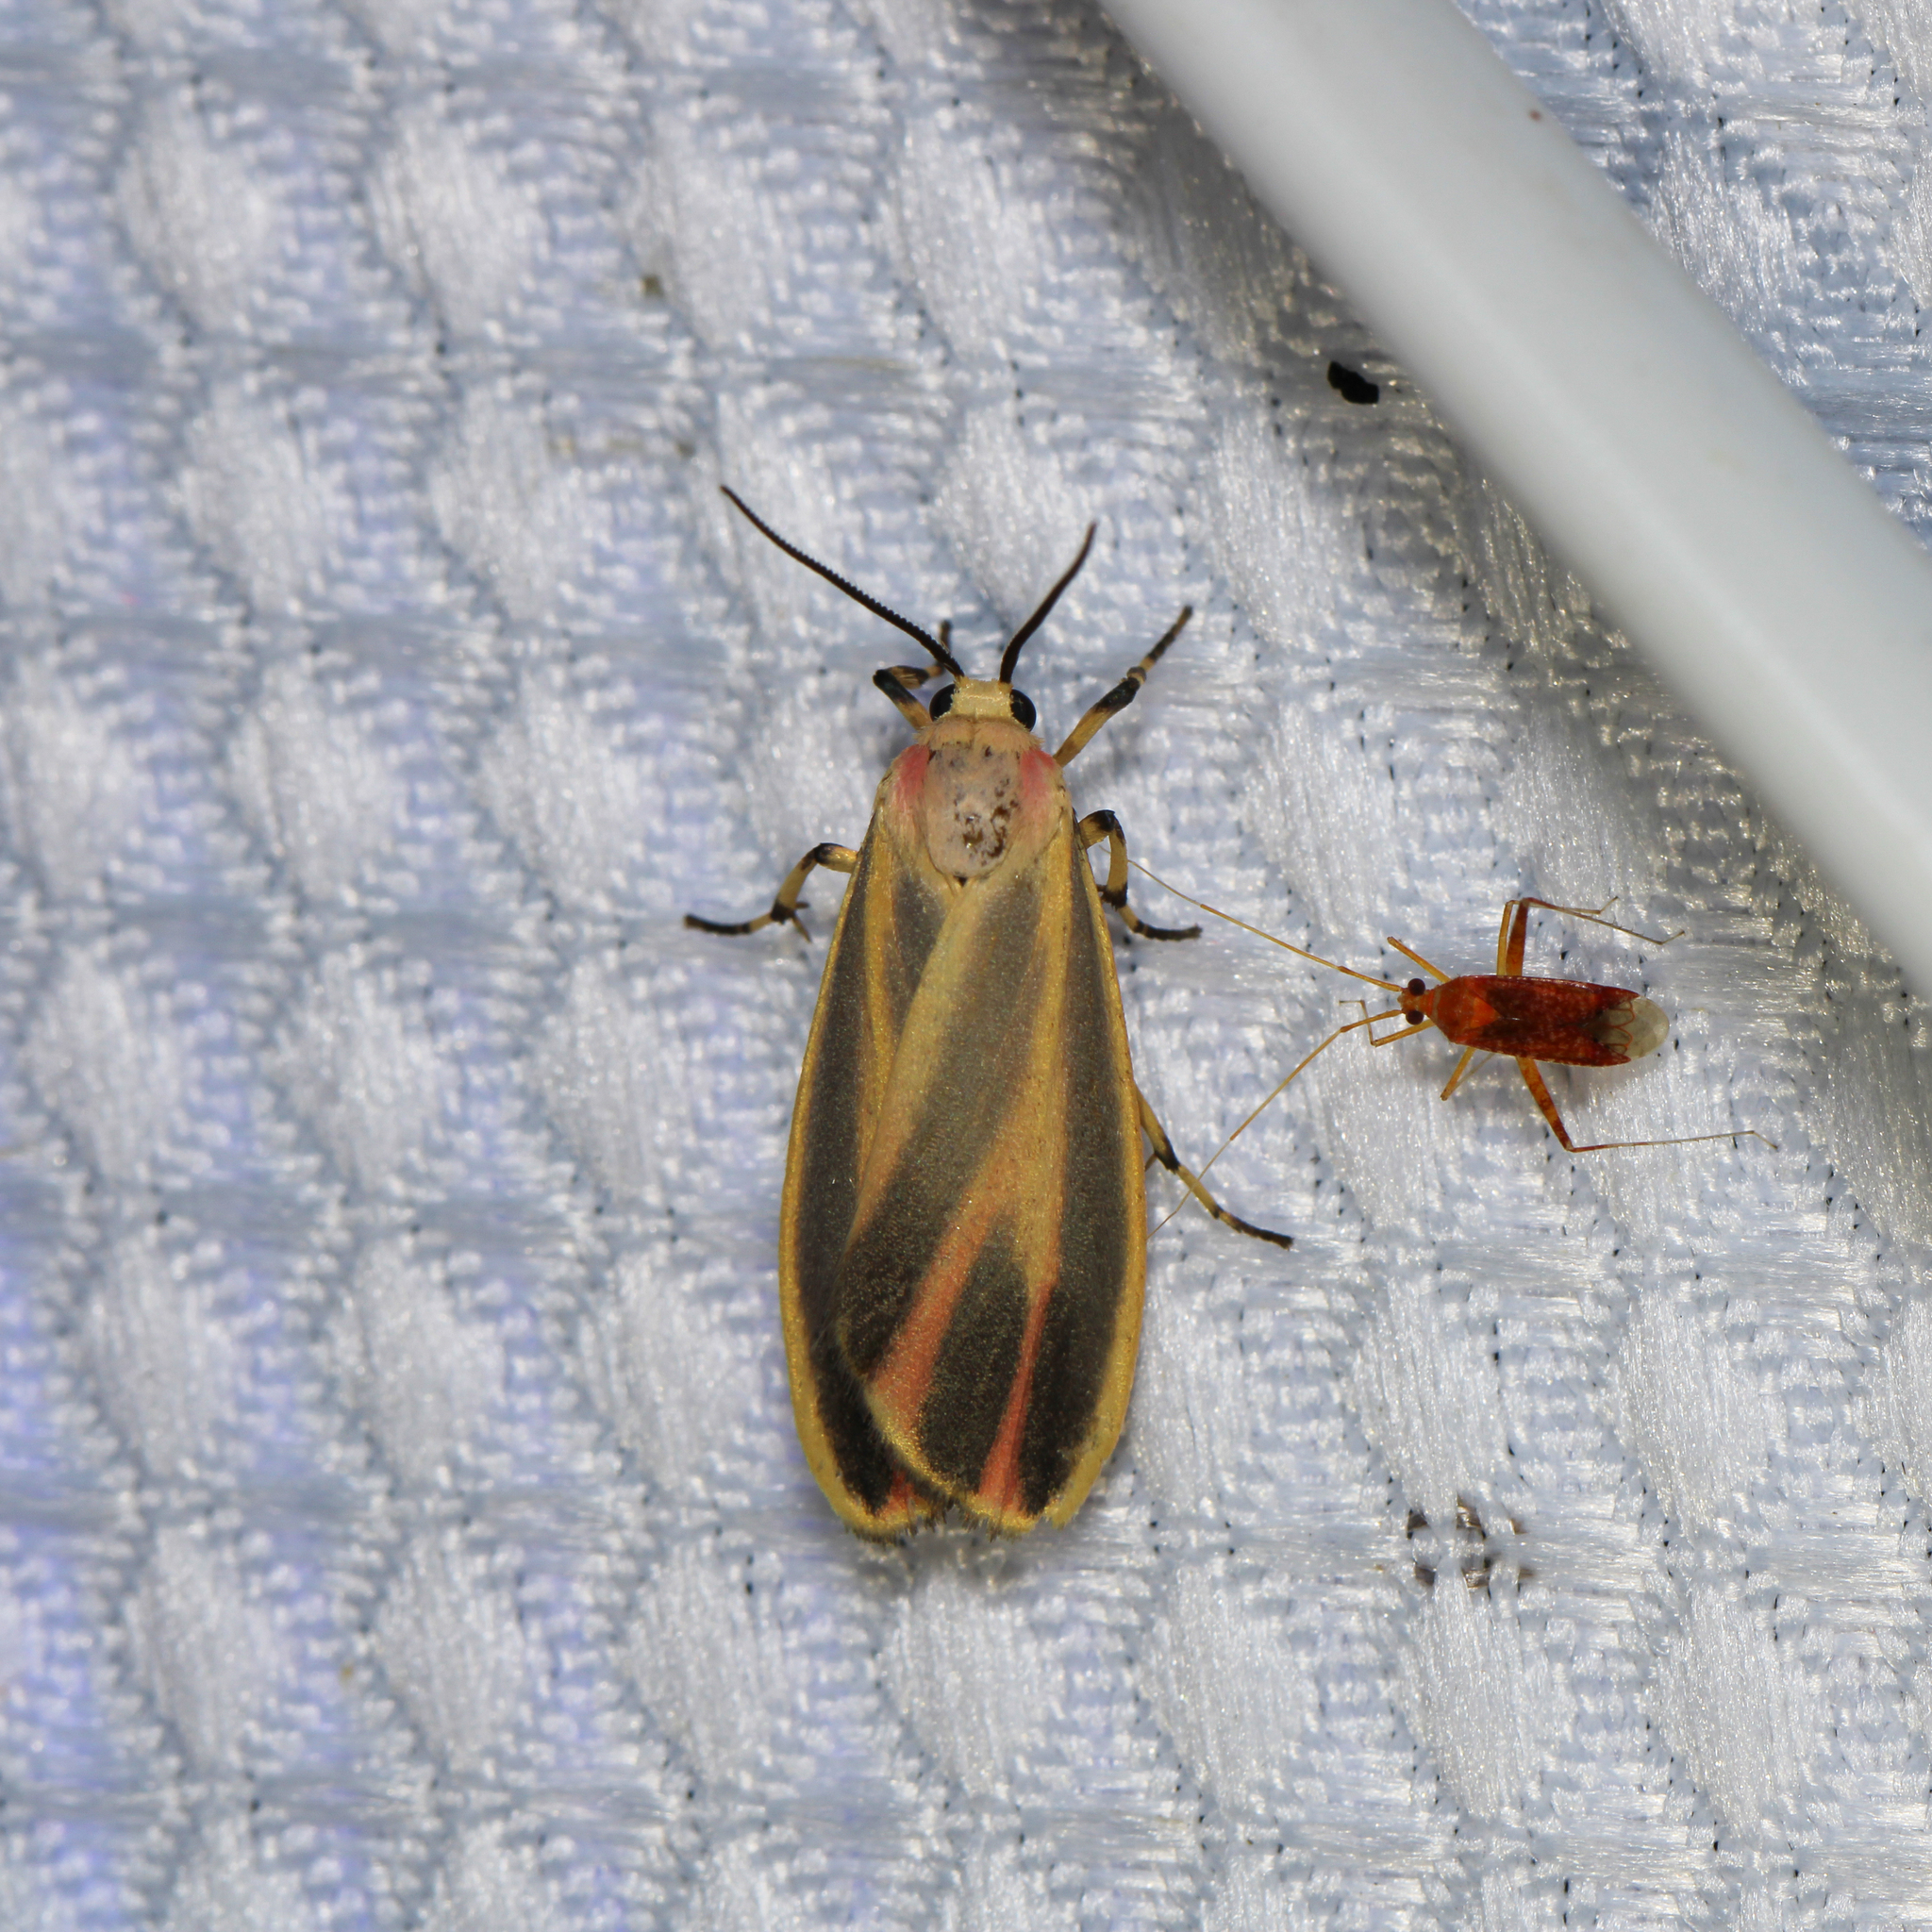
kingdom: Animalia
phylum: Arthropoda
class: Insecta
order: Lepidoptera
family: Erebidae
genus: Hypoprepia
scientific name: Hypoprepia fucosa
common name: Painted lichen moth
